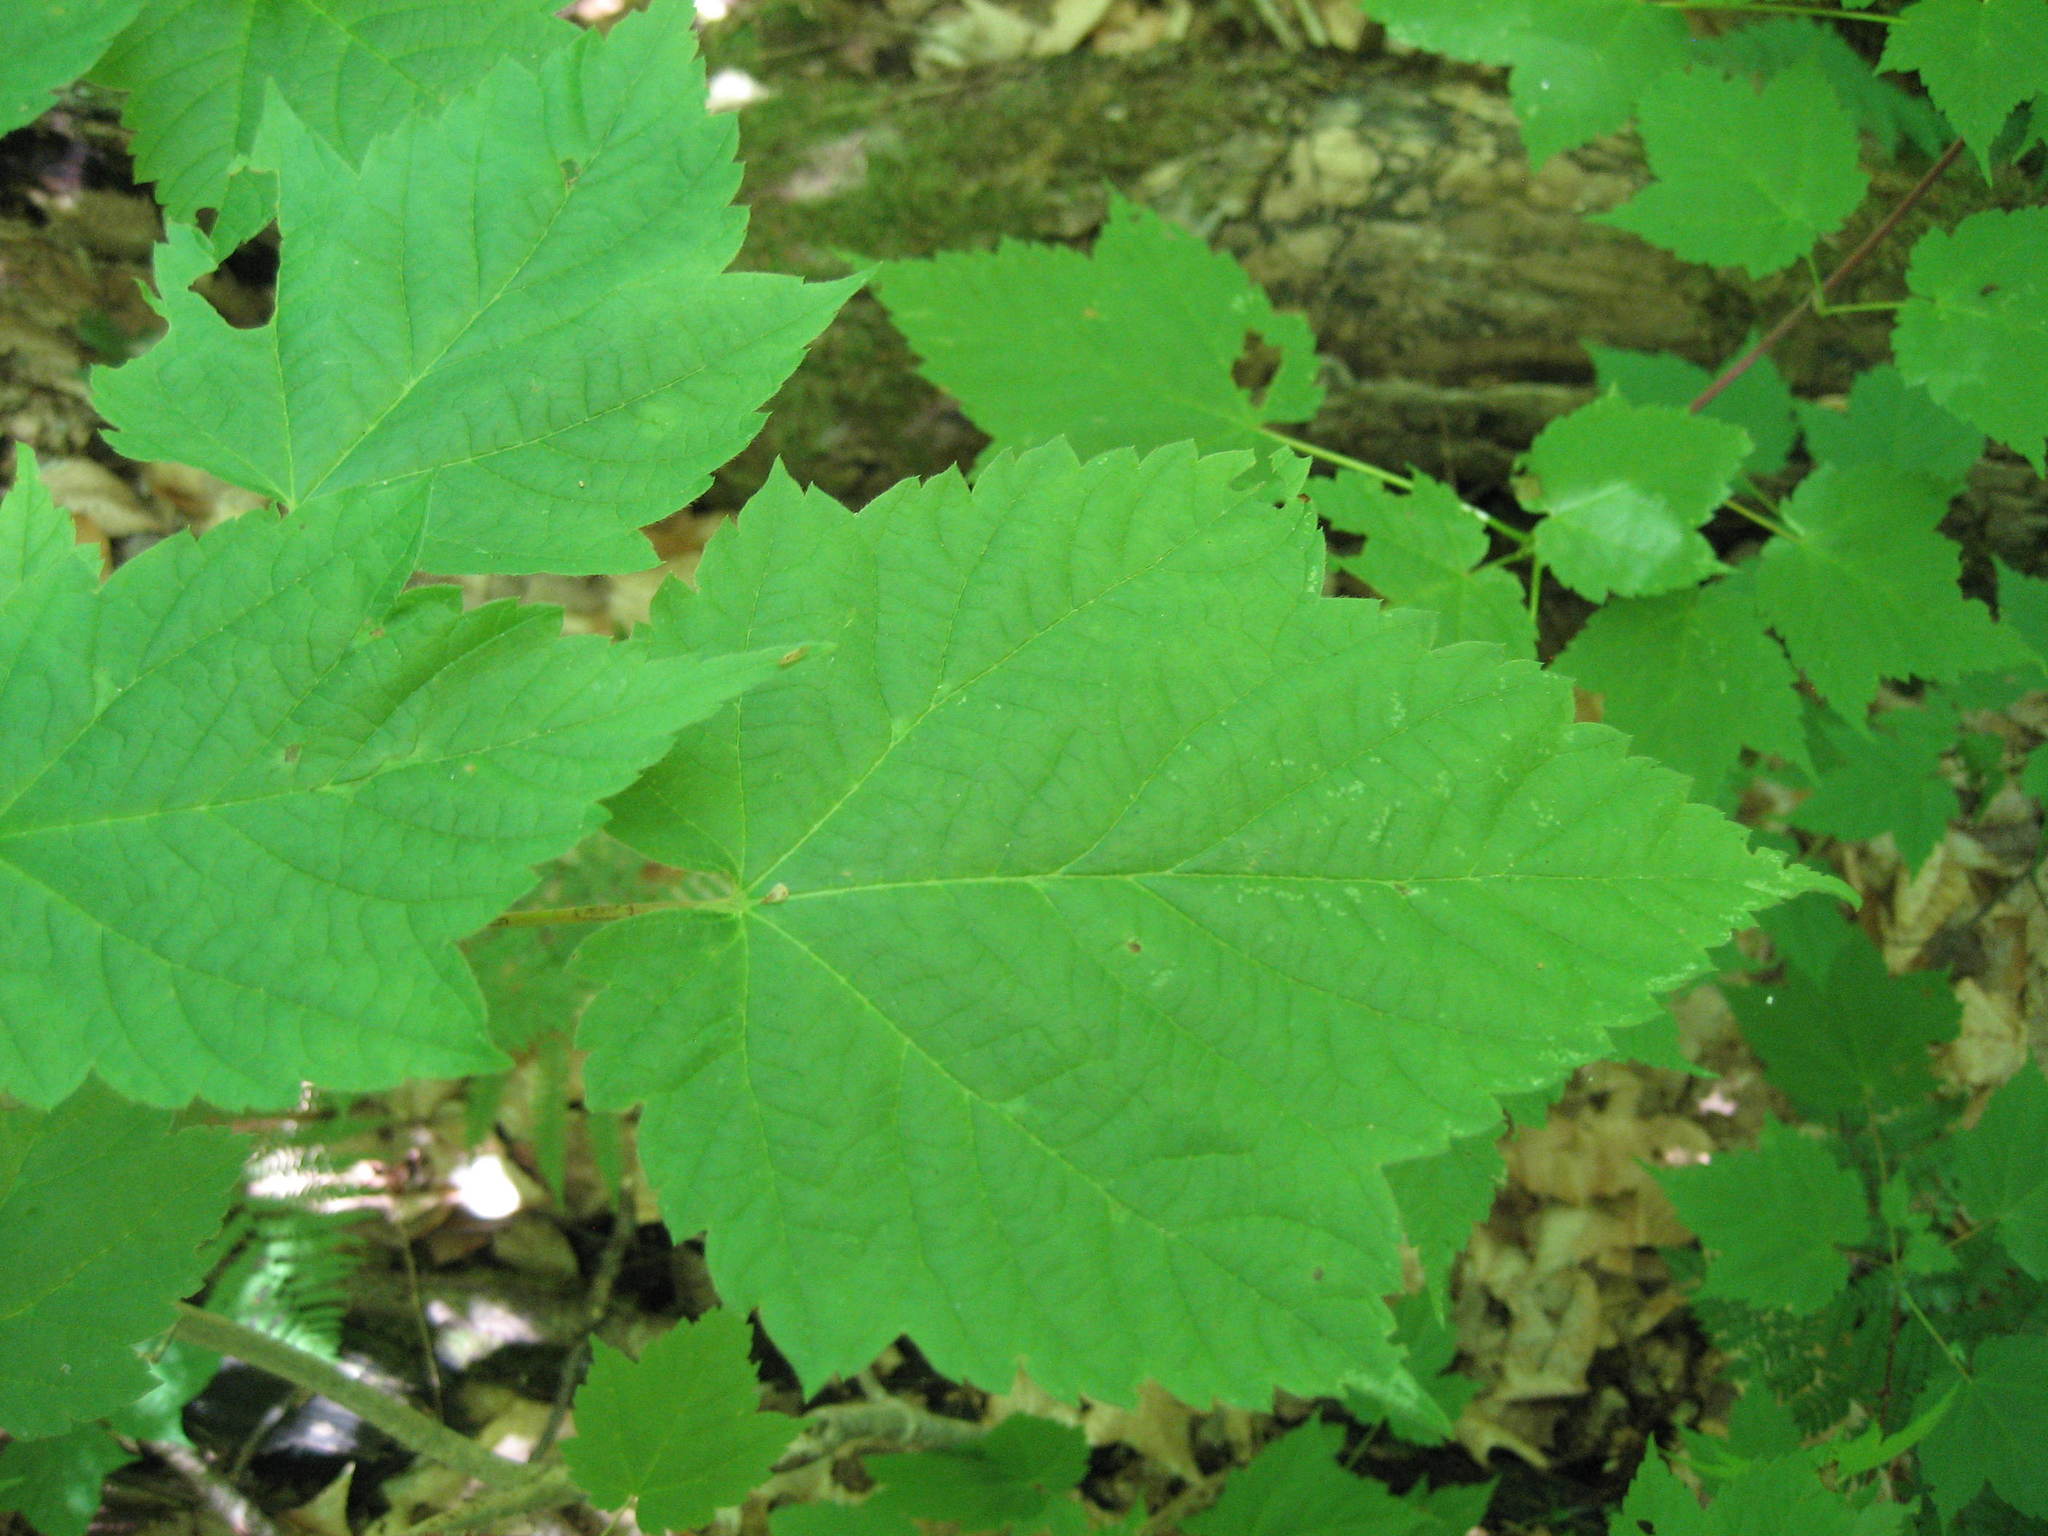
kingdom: Plantae
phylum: Tracheophyta
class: Magnoliopsida
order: Sapindales
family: Sapindaceae
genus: Acer
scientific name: Acer spicatum
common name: Mountain maple
